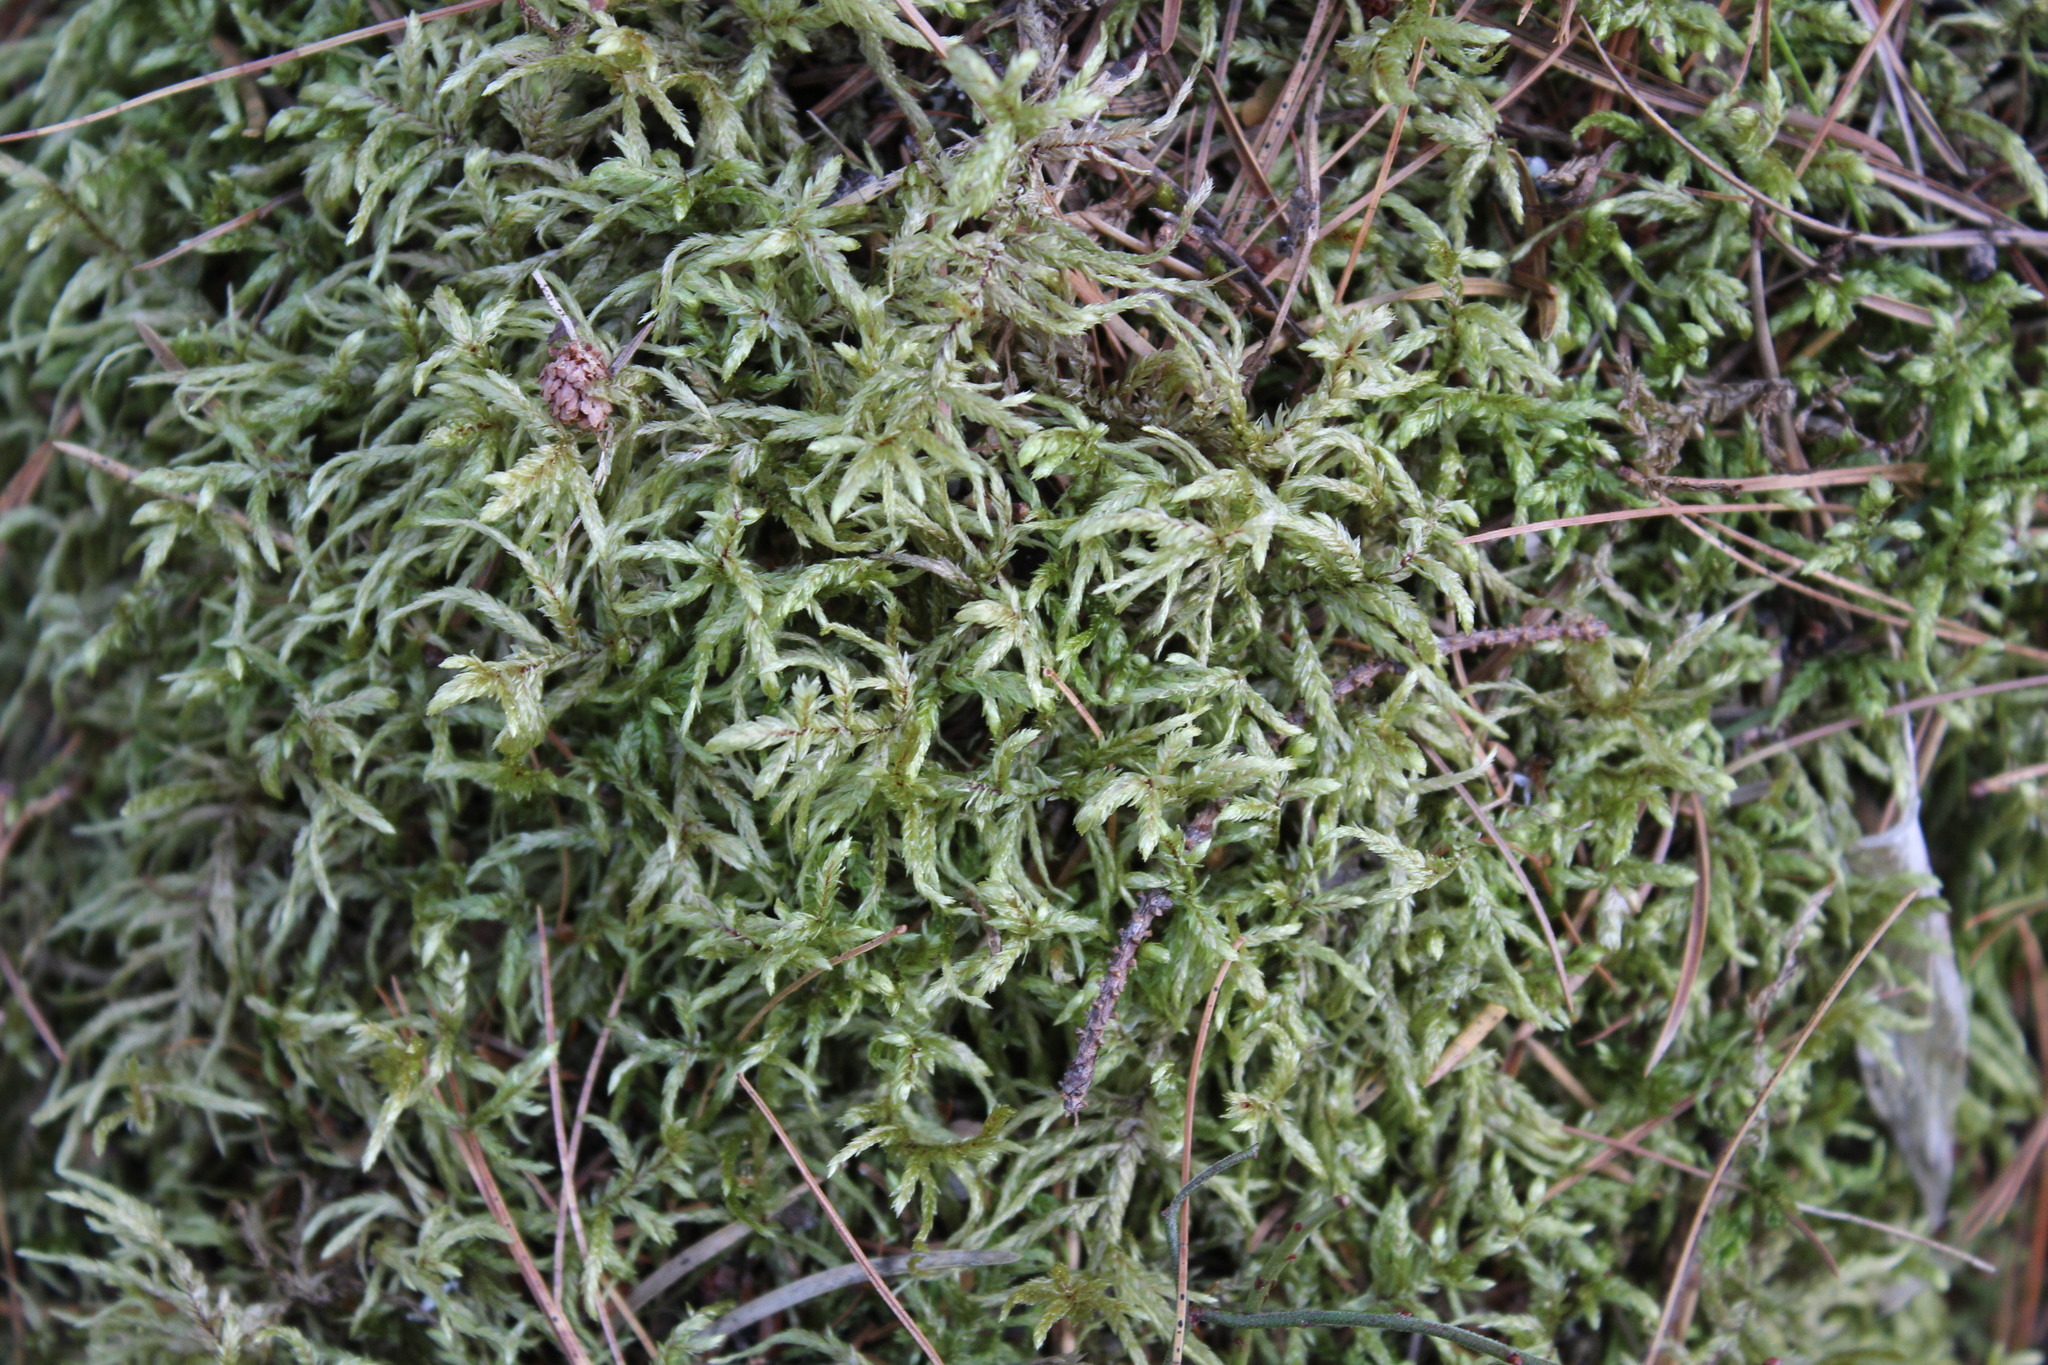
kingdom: Plantae
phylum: Bryophyta
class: Bryopsida
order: Hypnales
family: Hylocomiaceae
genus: Pleurozium
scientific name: Pleurozium schreberi
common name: Red-stemmed feather moss
